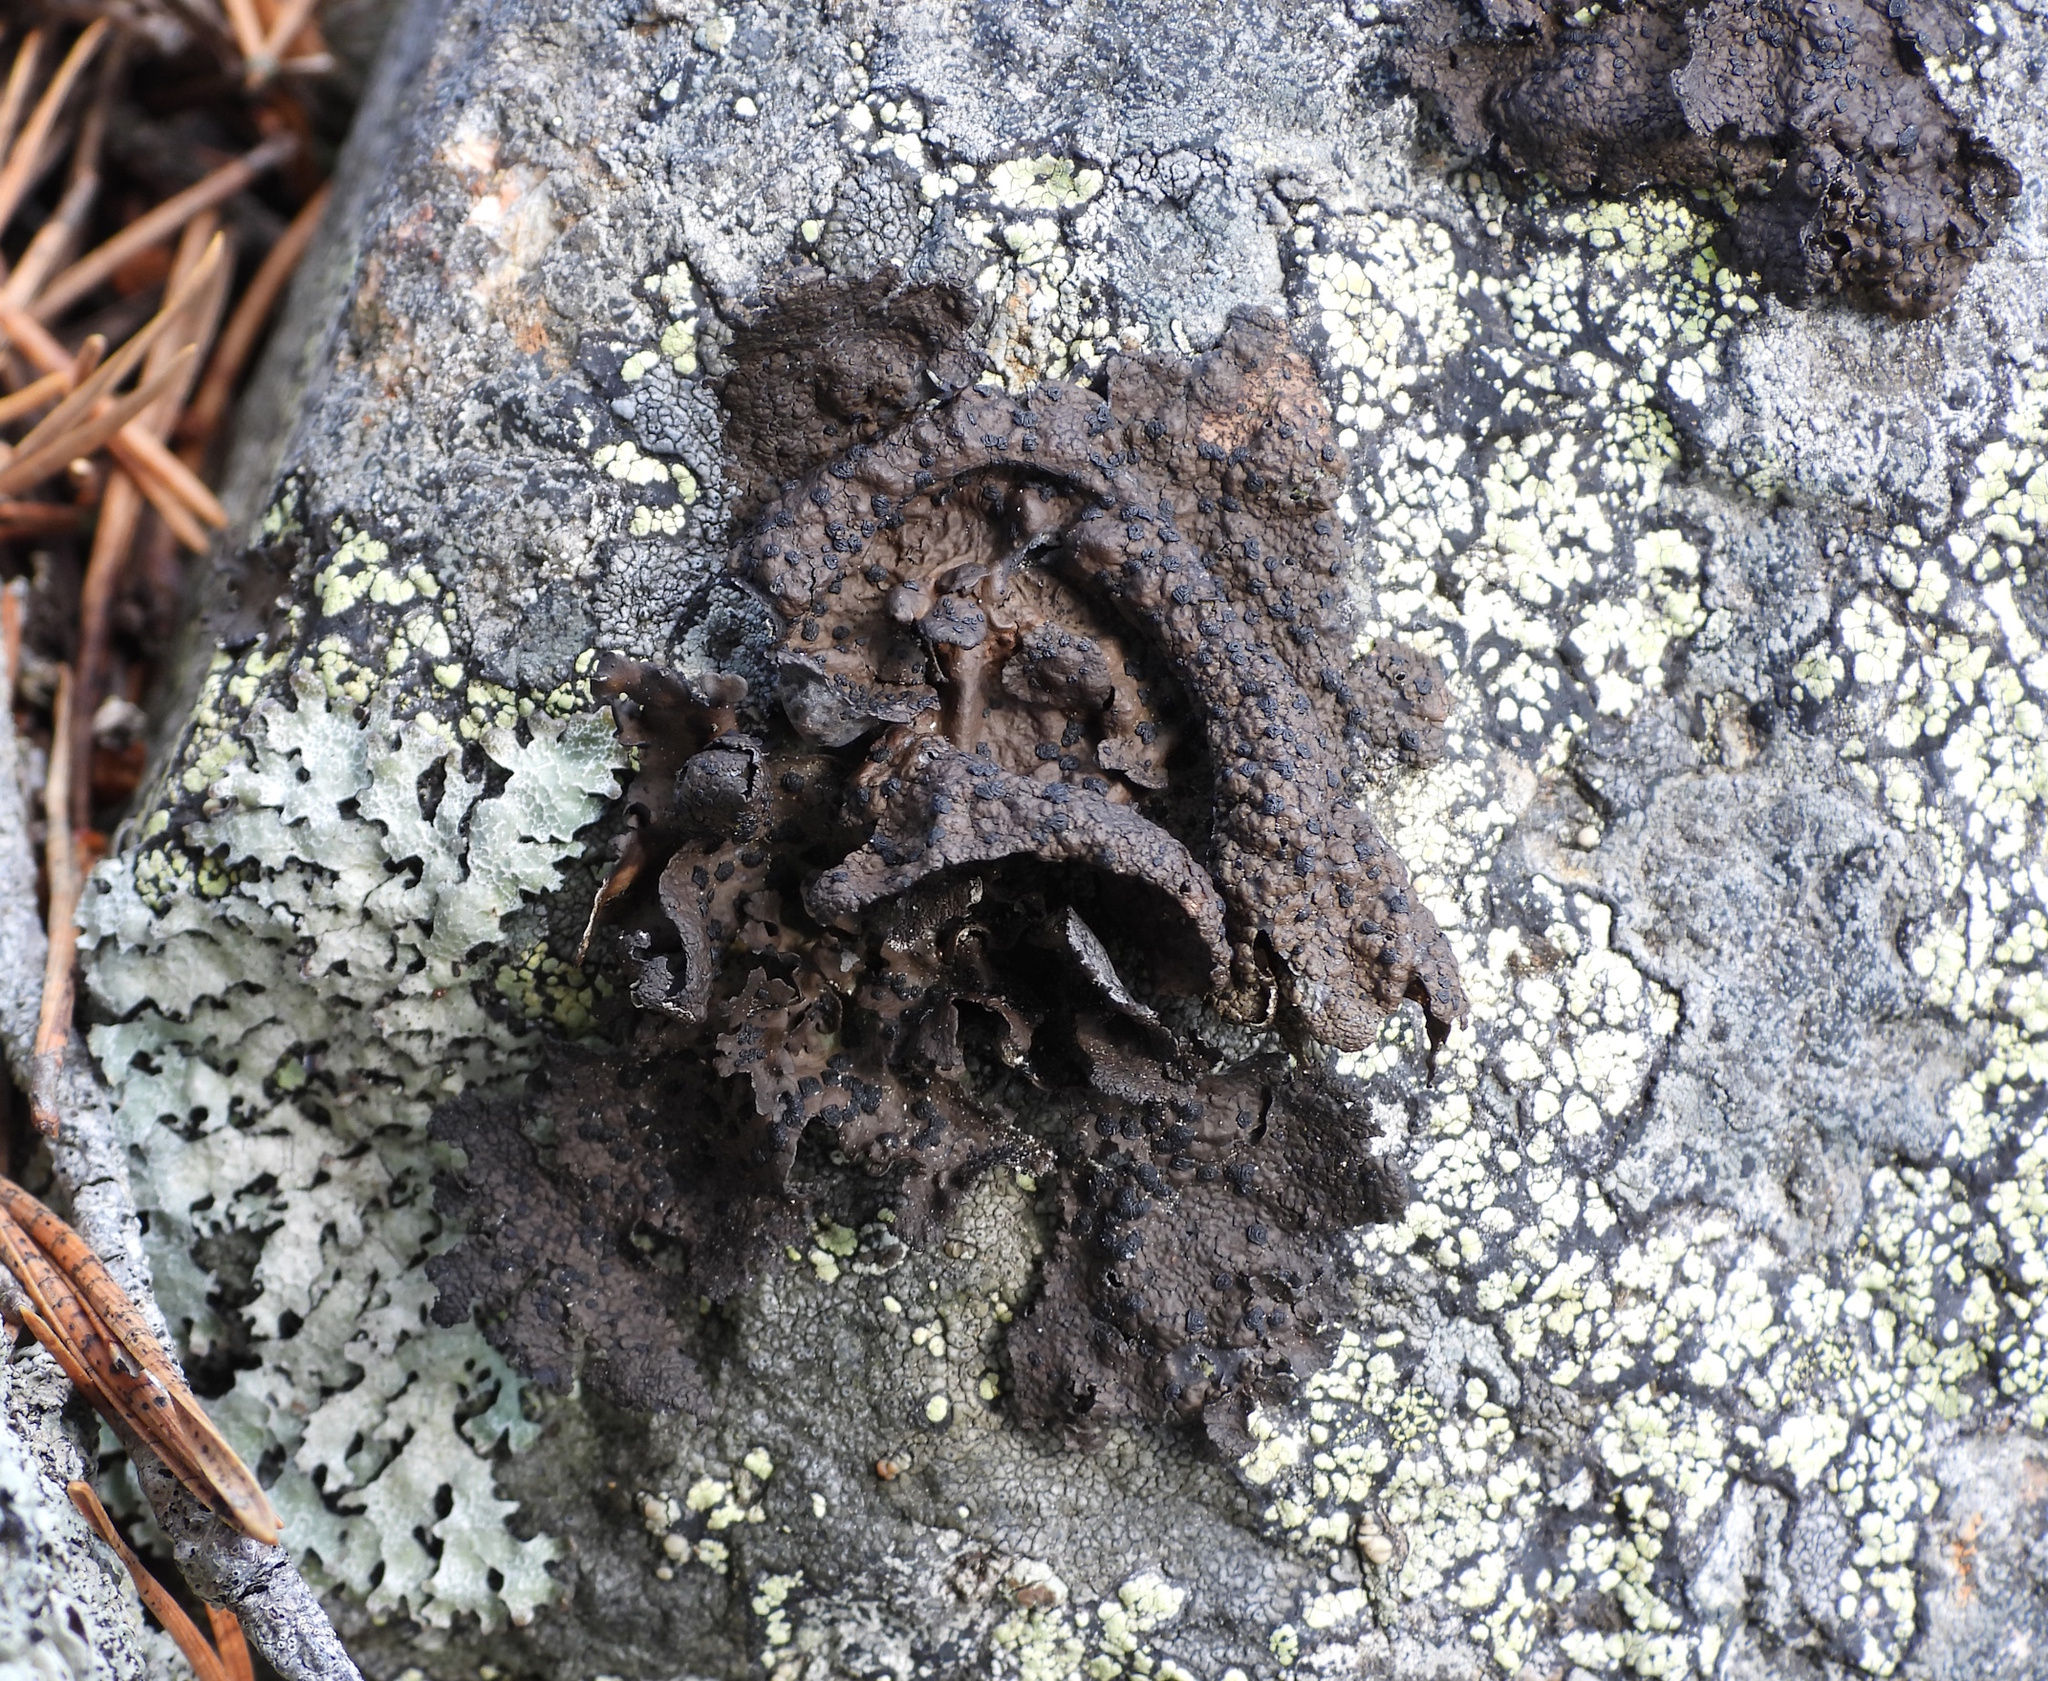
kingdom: Fungi
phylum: Ascomycota
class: Lecanoromycetes
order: Umbilicariales
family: Umbilicariaceae
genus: Umbilicaria
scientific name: Umbilicaria torrefacta
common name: Punctured rock tripe lichen
